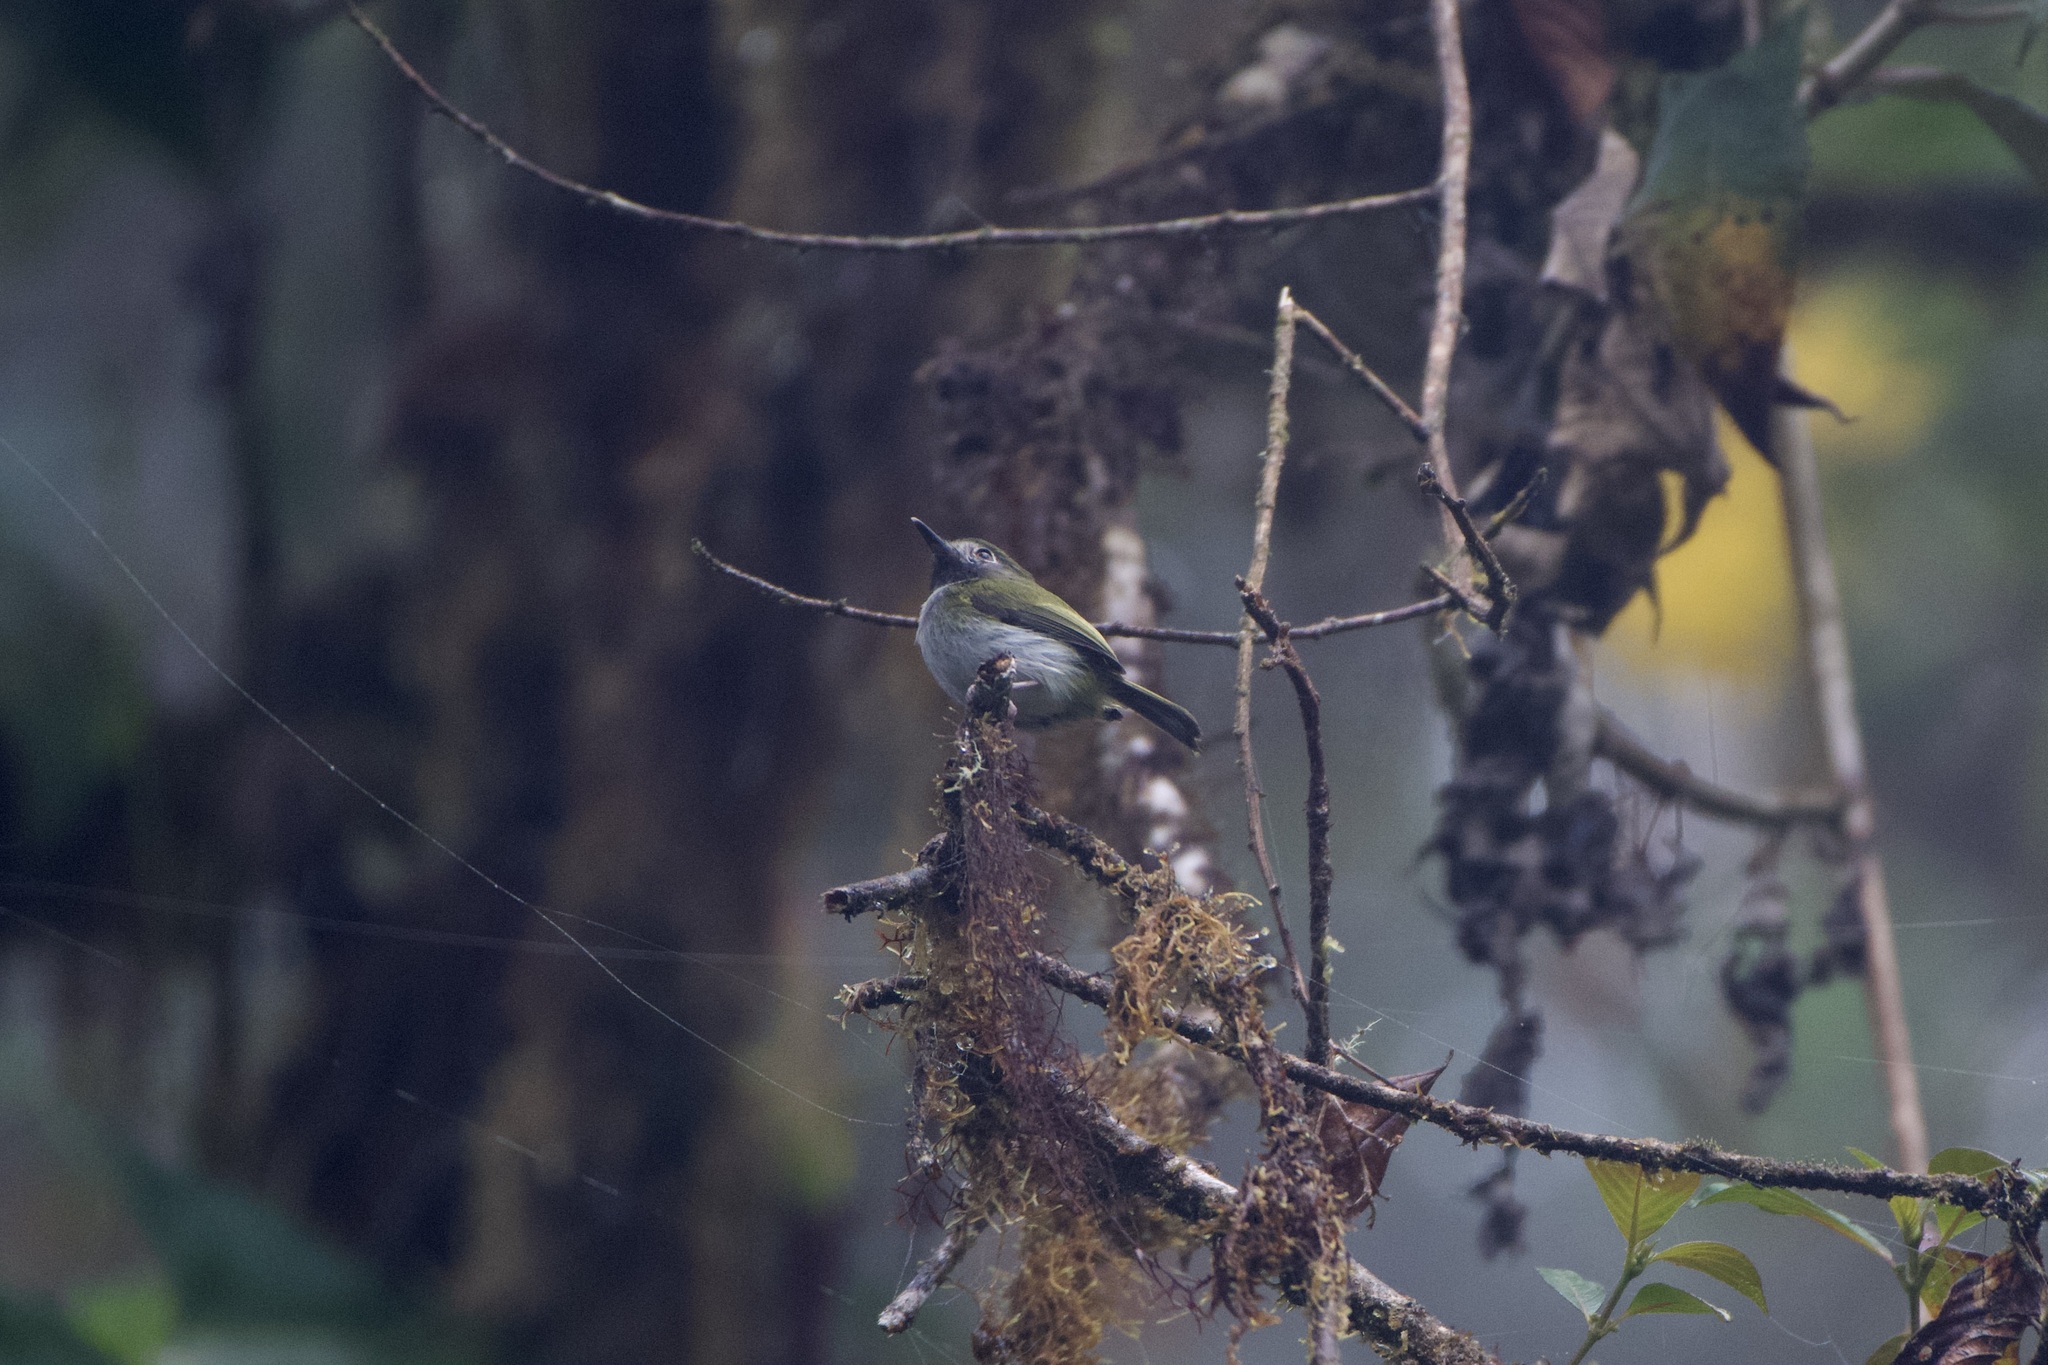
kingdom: Animalia
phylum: Chordata
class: Aves
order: Passeriformes
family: Tyrannidae
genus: Hemitriccus
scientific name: Hemitriccus granadensis
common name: Black-throated tody-tyrant
